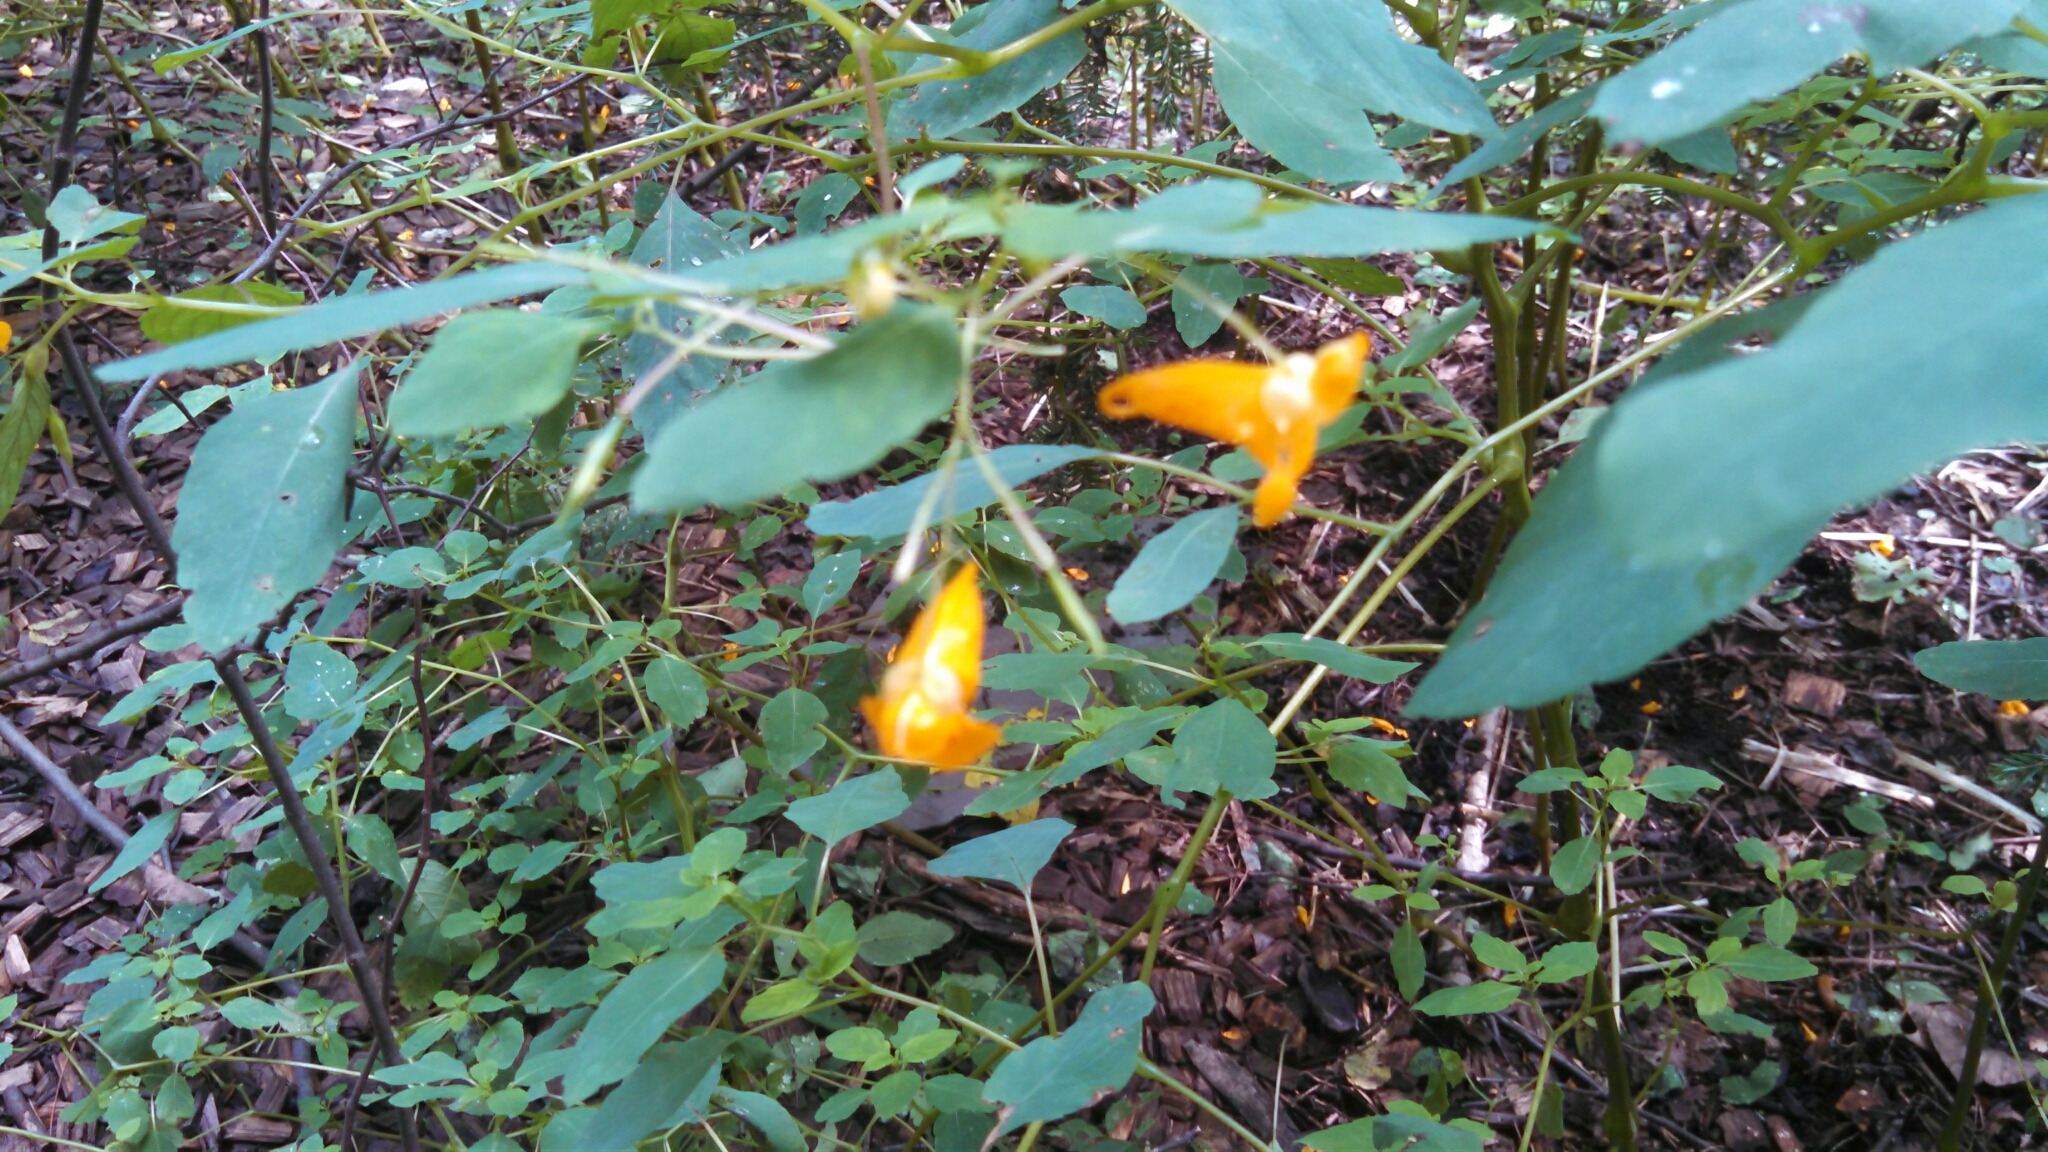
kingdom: Plantae
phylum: Tracheophyta
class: Magnoliopsida
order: Ericales
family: Balsaminaceae
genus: Impatiens
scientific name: Impatiens capensis
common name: Orange balsam
